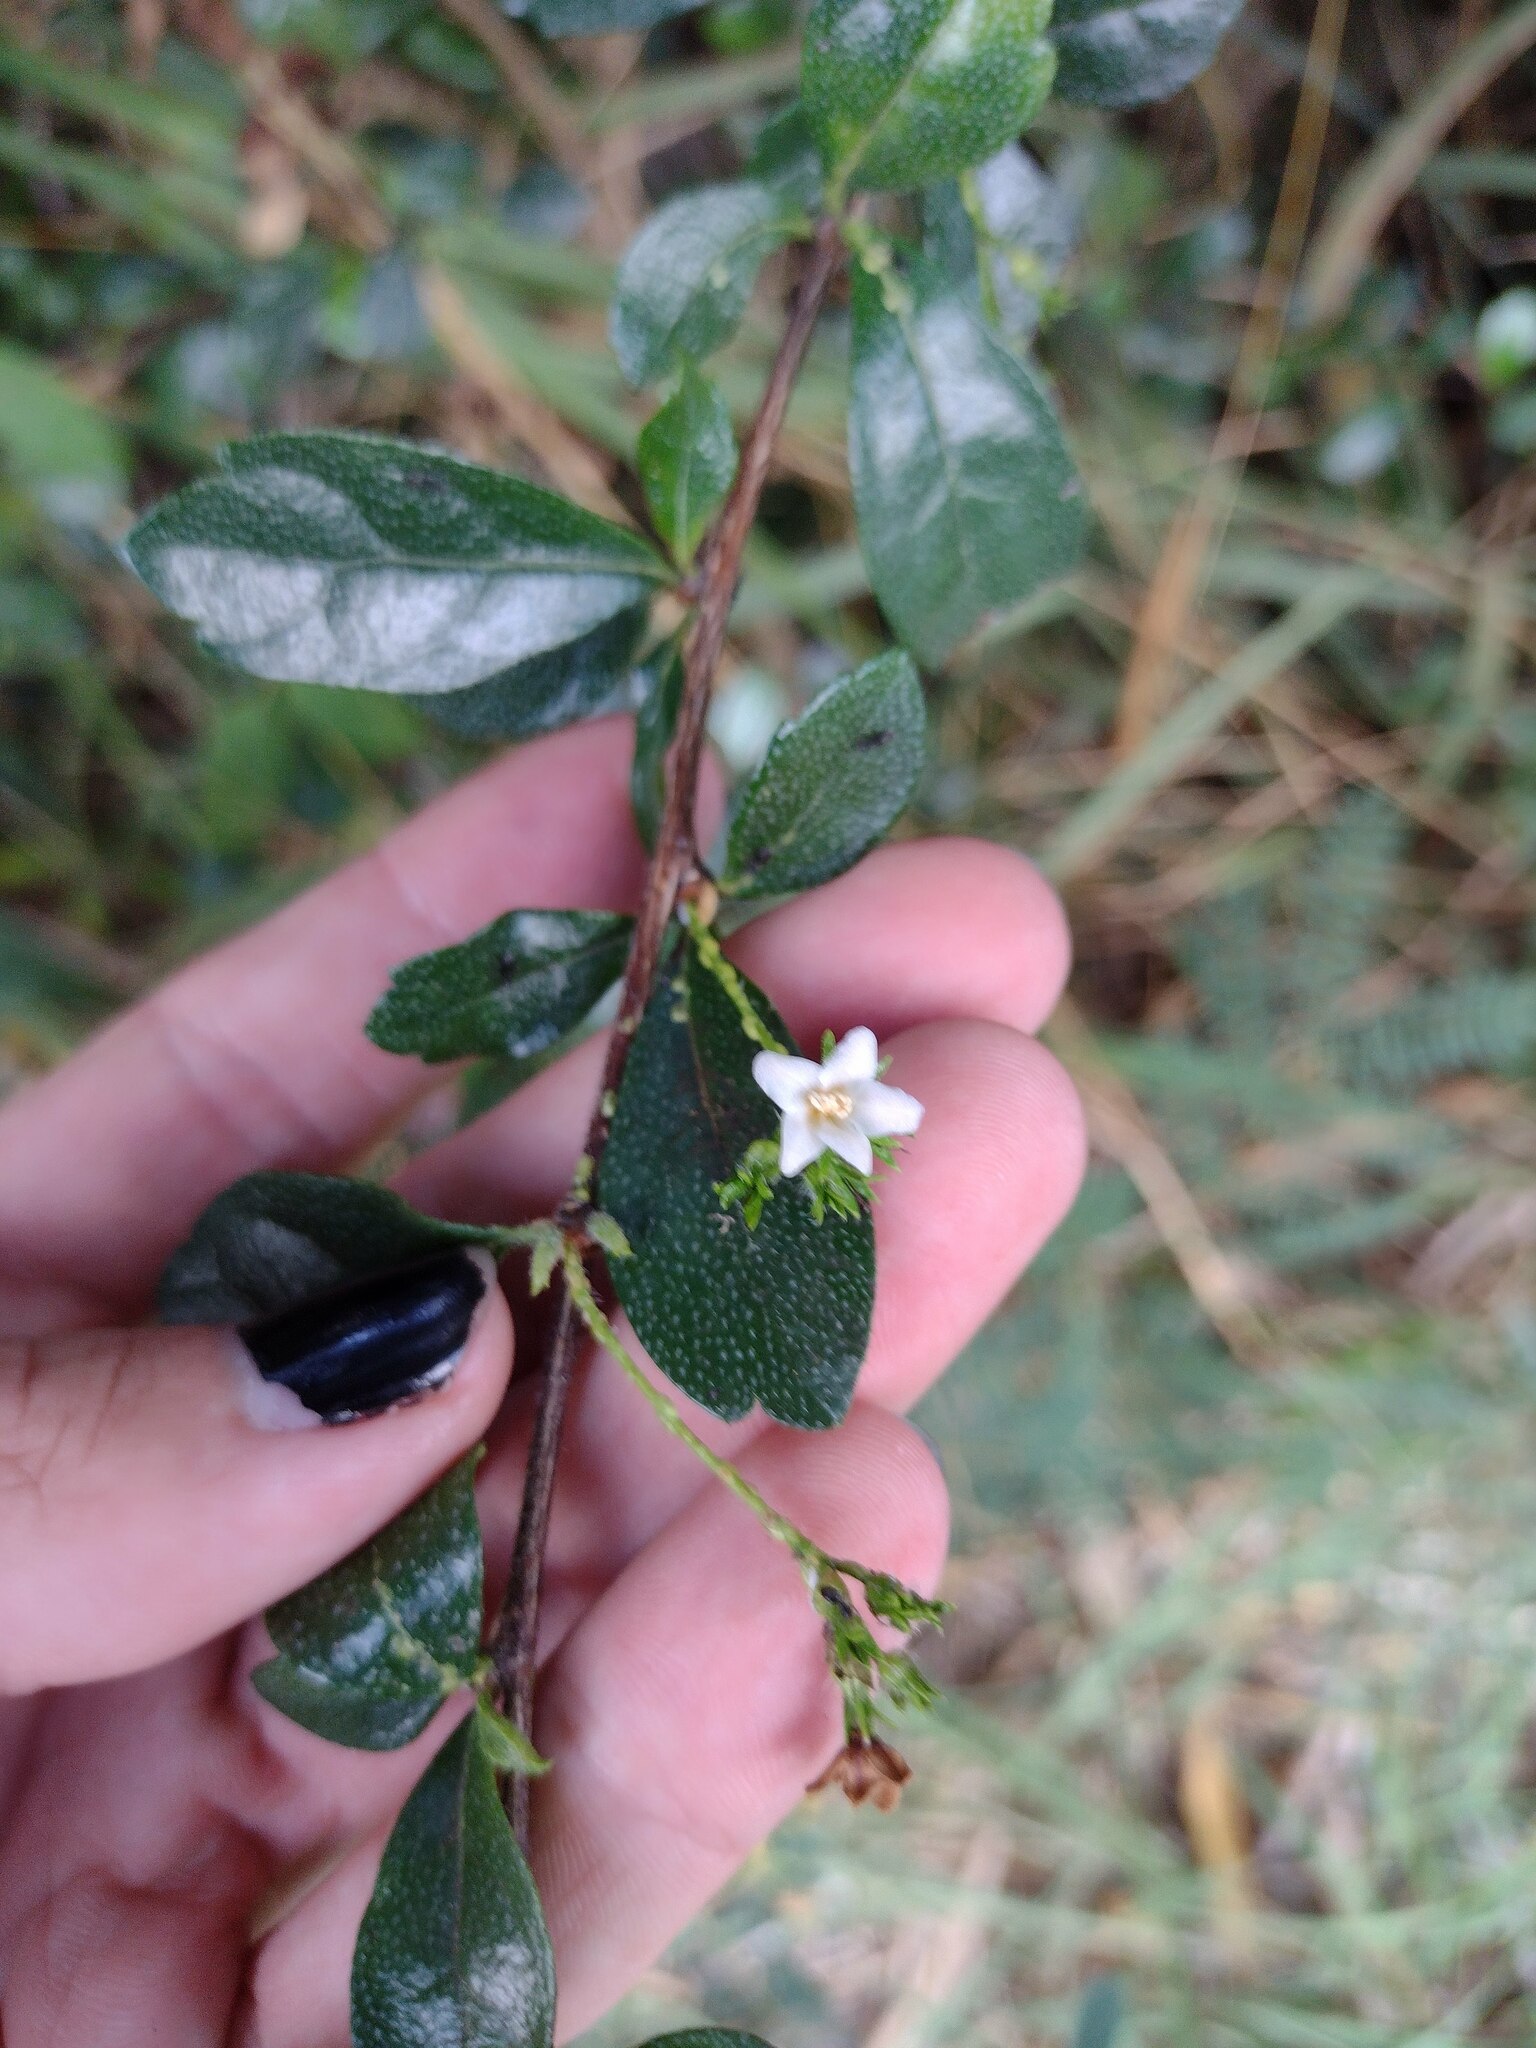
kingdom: Plantae
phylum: Tracheophyta
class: Magnoliopsida
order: Boraginales
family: Ehretiaceae
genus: Ehretia
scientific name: Ehretia microphylla
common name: Fukien-tea
